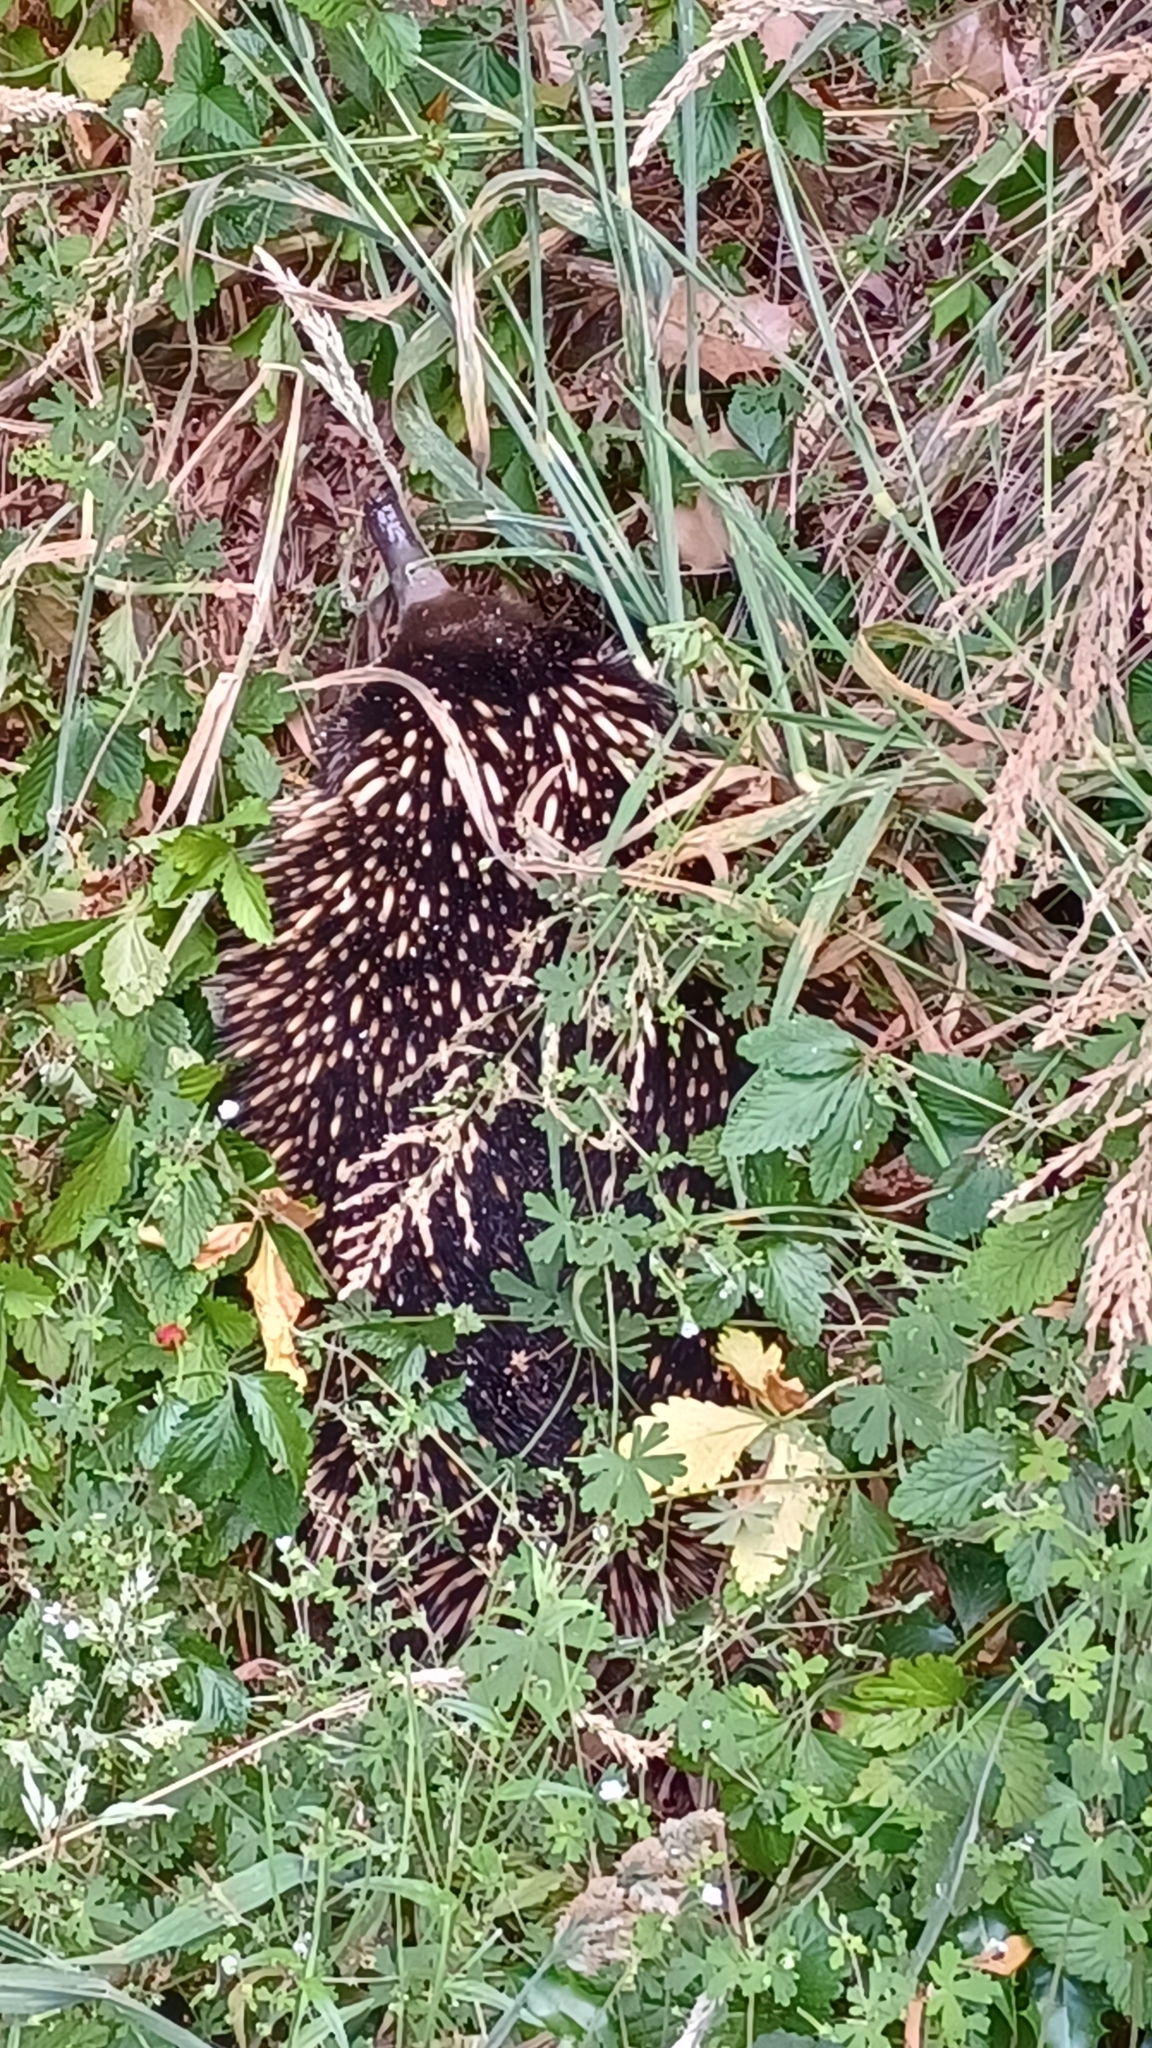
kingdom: Animalia
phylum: Chordata
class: Mammalia
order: Monotremata
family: Tachyglossidae
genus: Tachyglossus
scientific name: Tachyglossus aculeatus
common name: Short-beaked echidna
